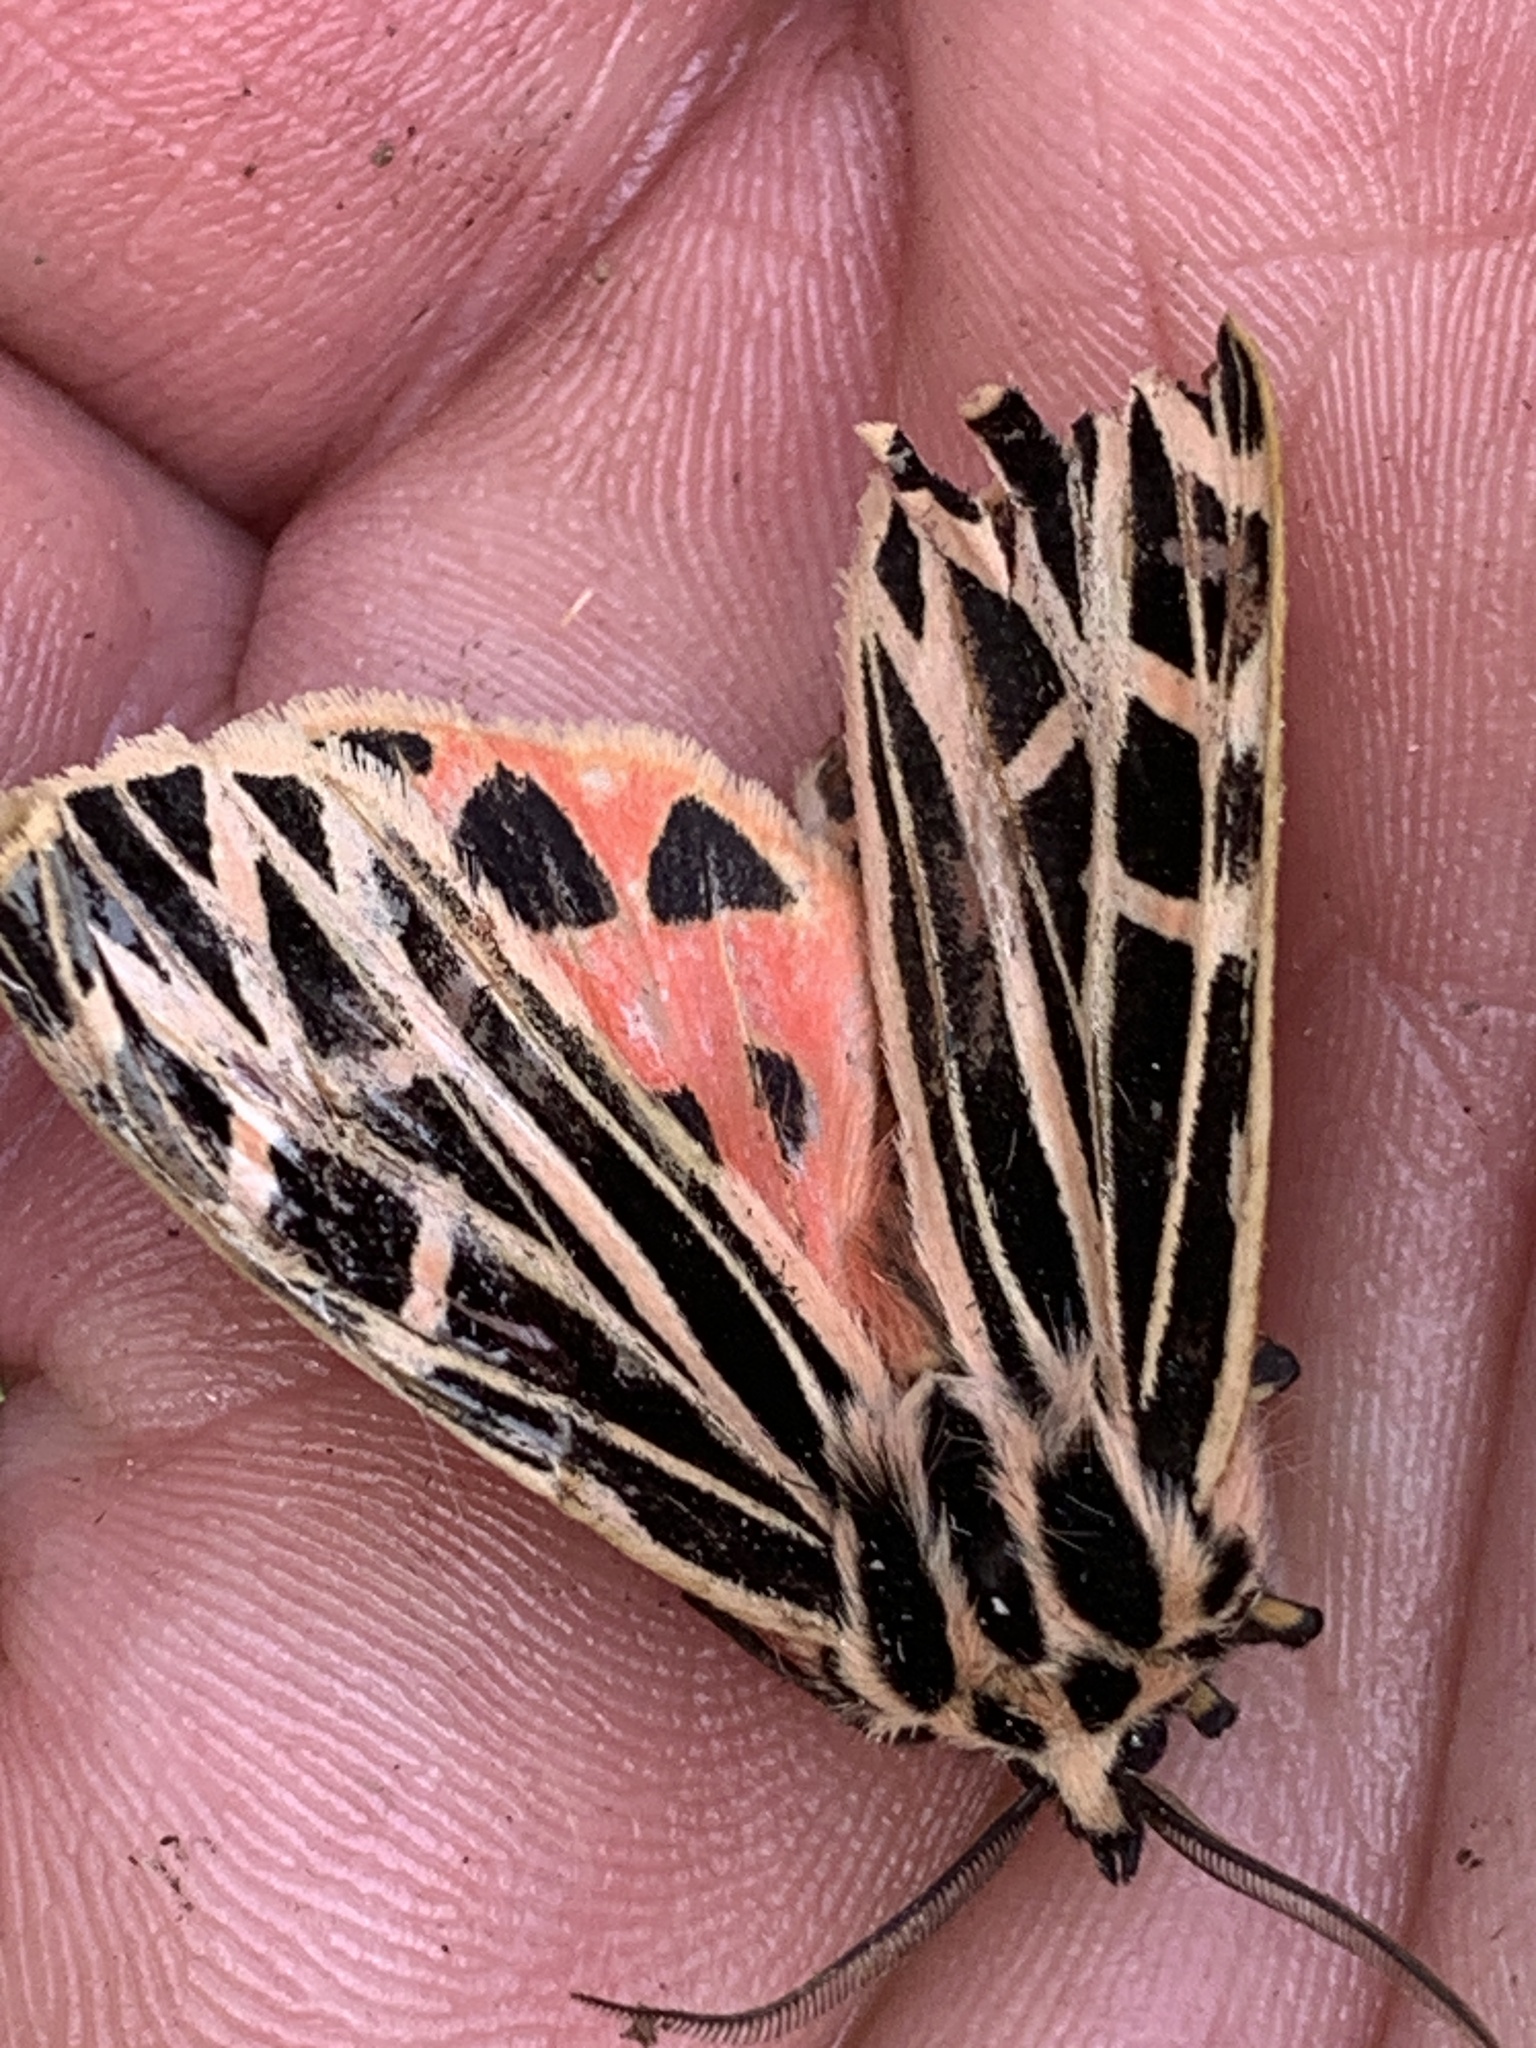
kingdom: Animalia
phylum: Arthropoda
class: Insecta
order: Lepidoptera
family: Erebidae
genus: Grammia
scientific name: Grammia virgo
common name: Virgin tiger moth
